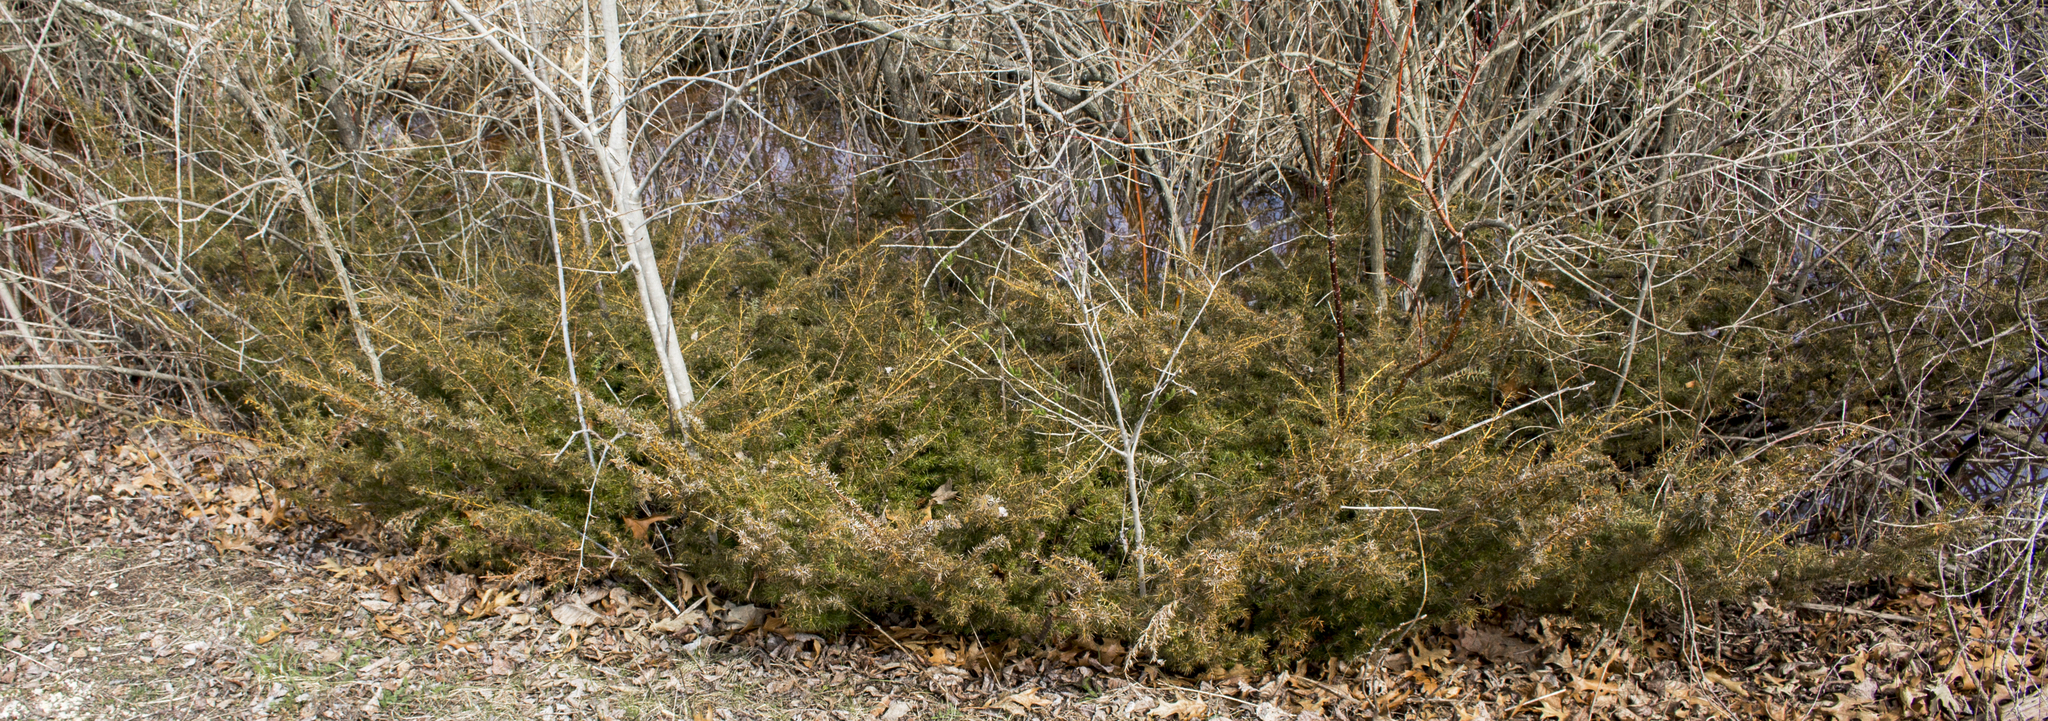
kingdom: Plantae
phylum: Tracheophyta
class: Pinopsida
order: Pinales
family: Cupressaceae
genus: Juniperus
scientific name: Juniperus communis
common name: Common juniper
